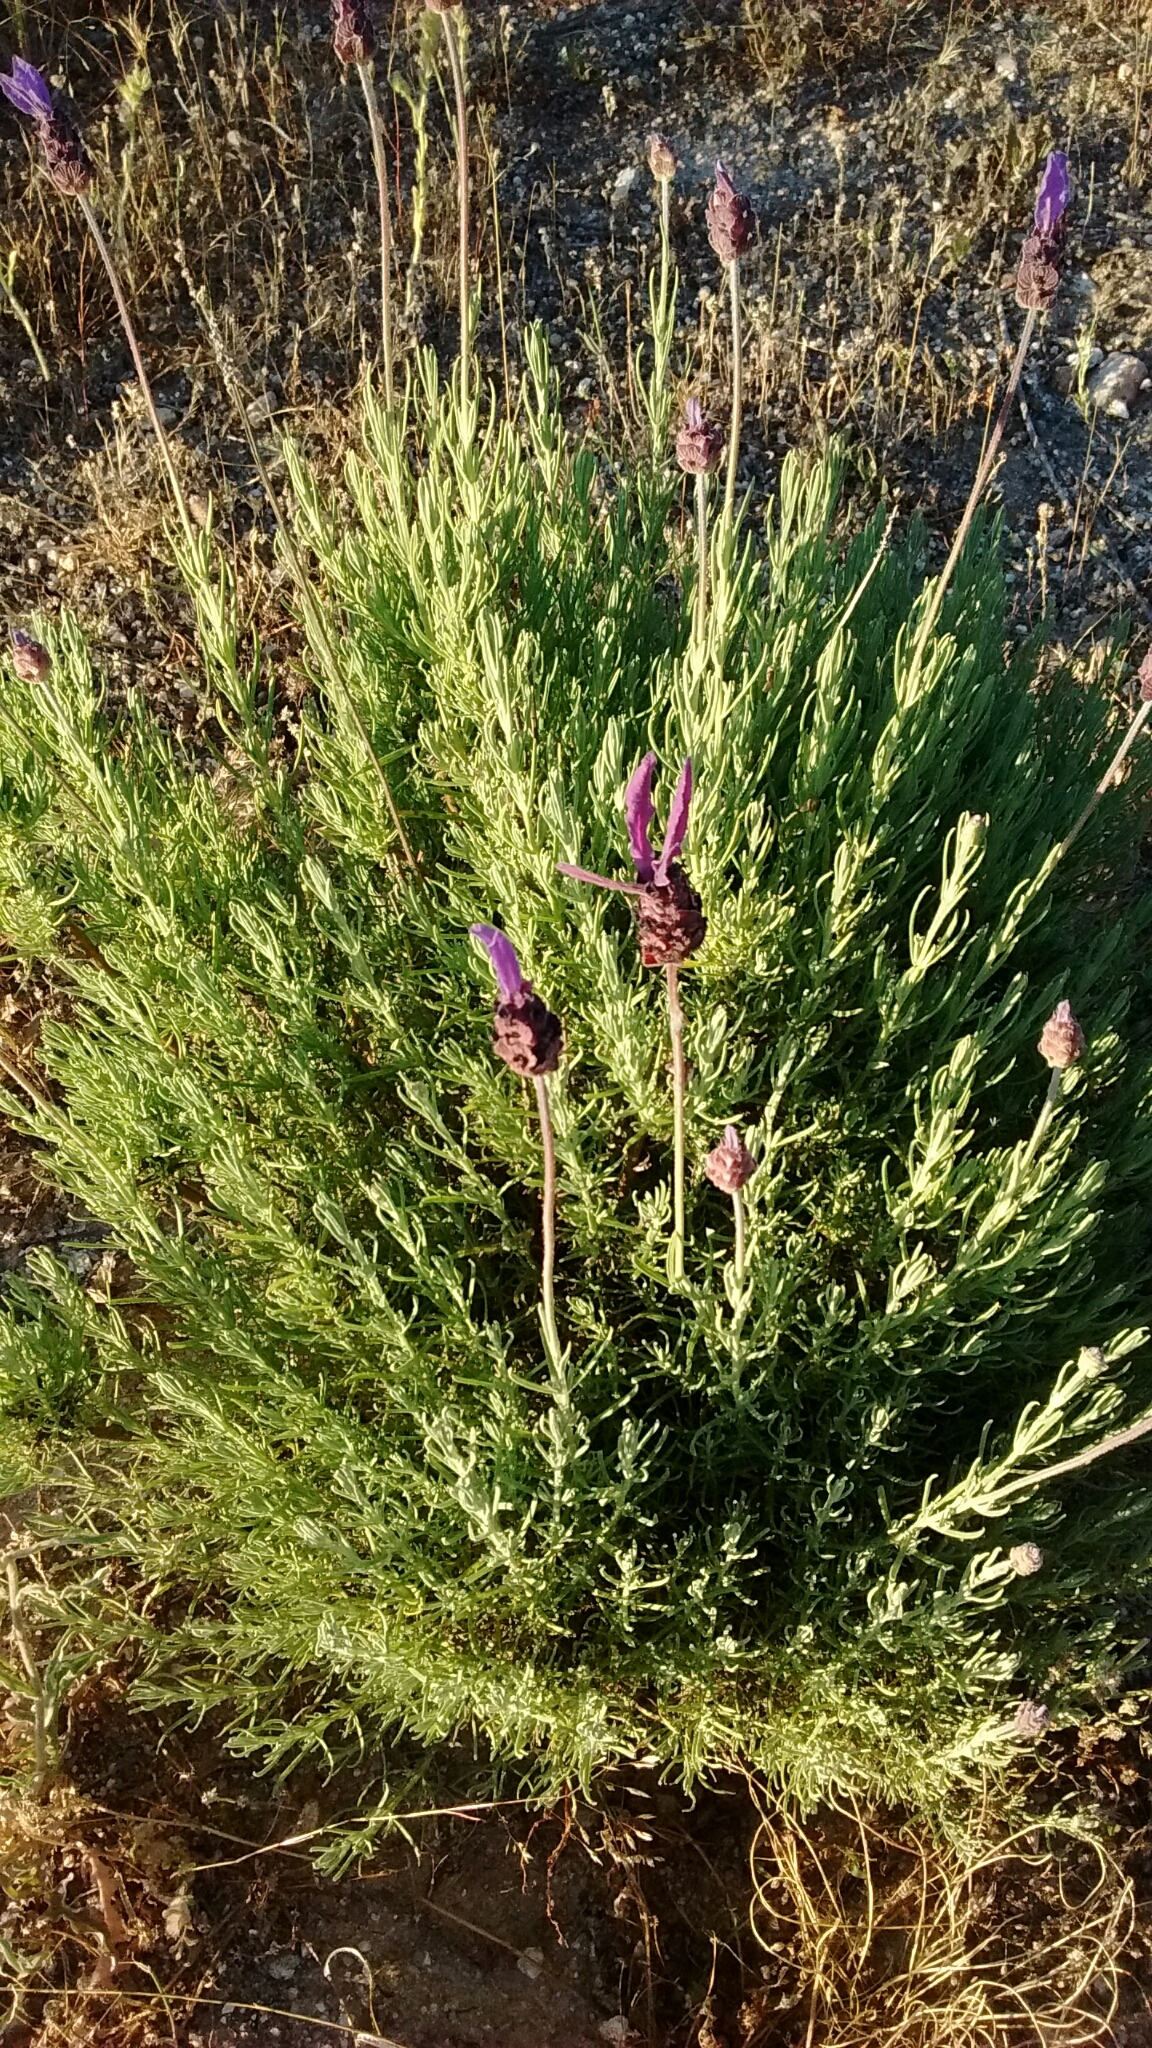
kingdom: Plantae
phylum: Tracheophyta
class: Magnoliopsida
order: Lamiales
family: Lamiaceae
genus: Lavandula
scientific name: Lavandula pedunculata
